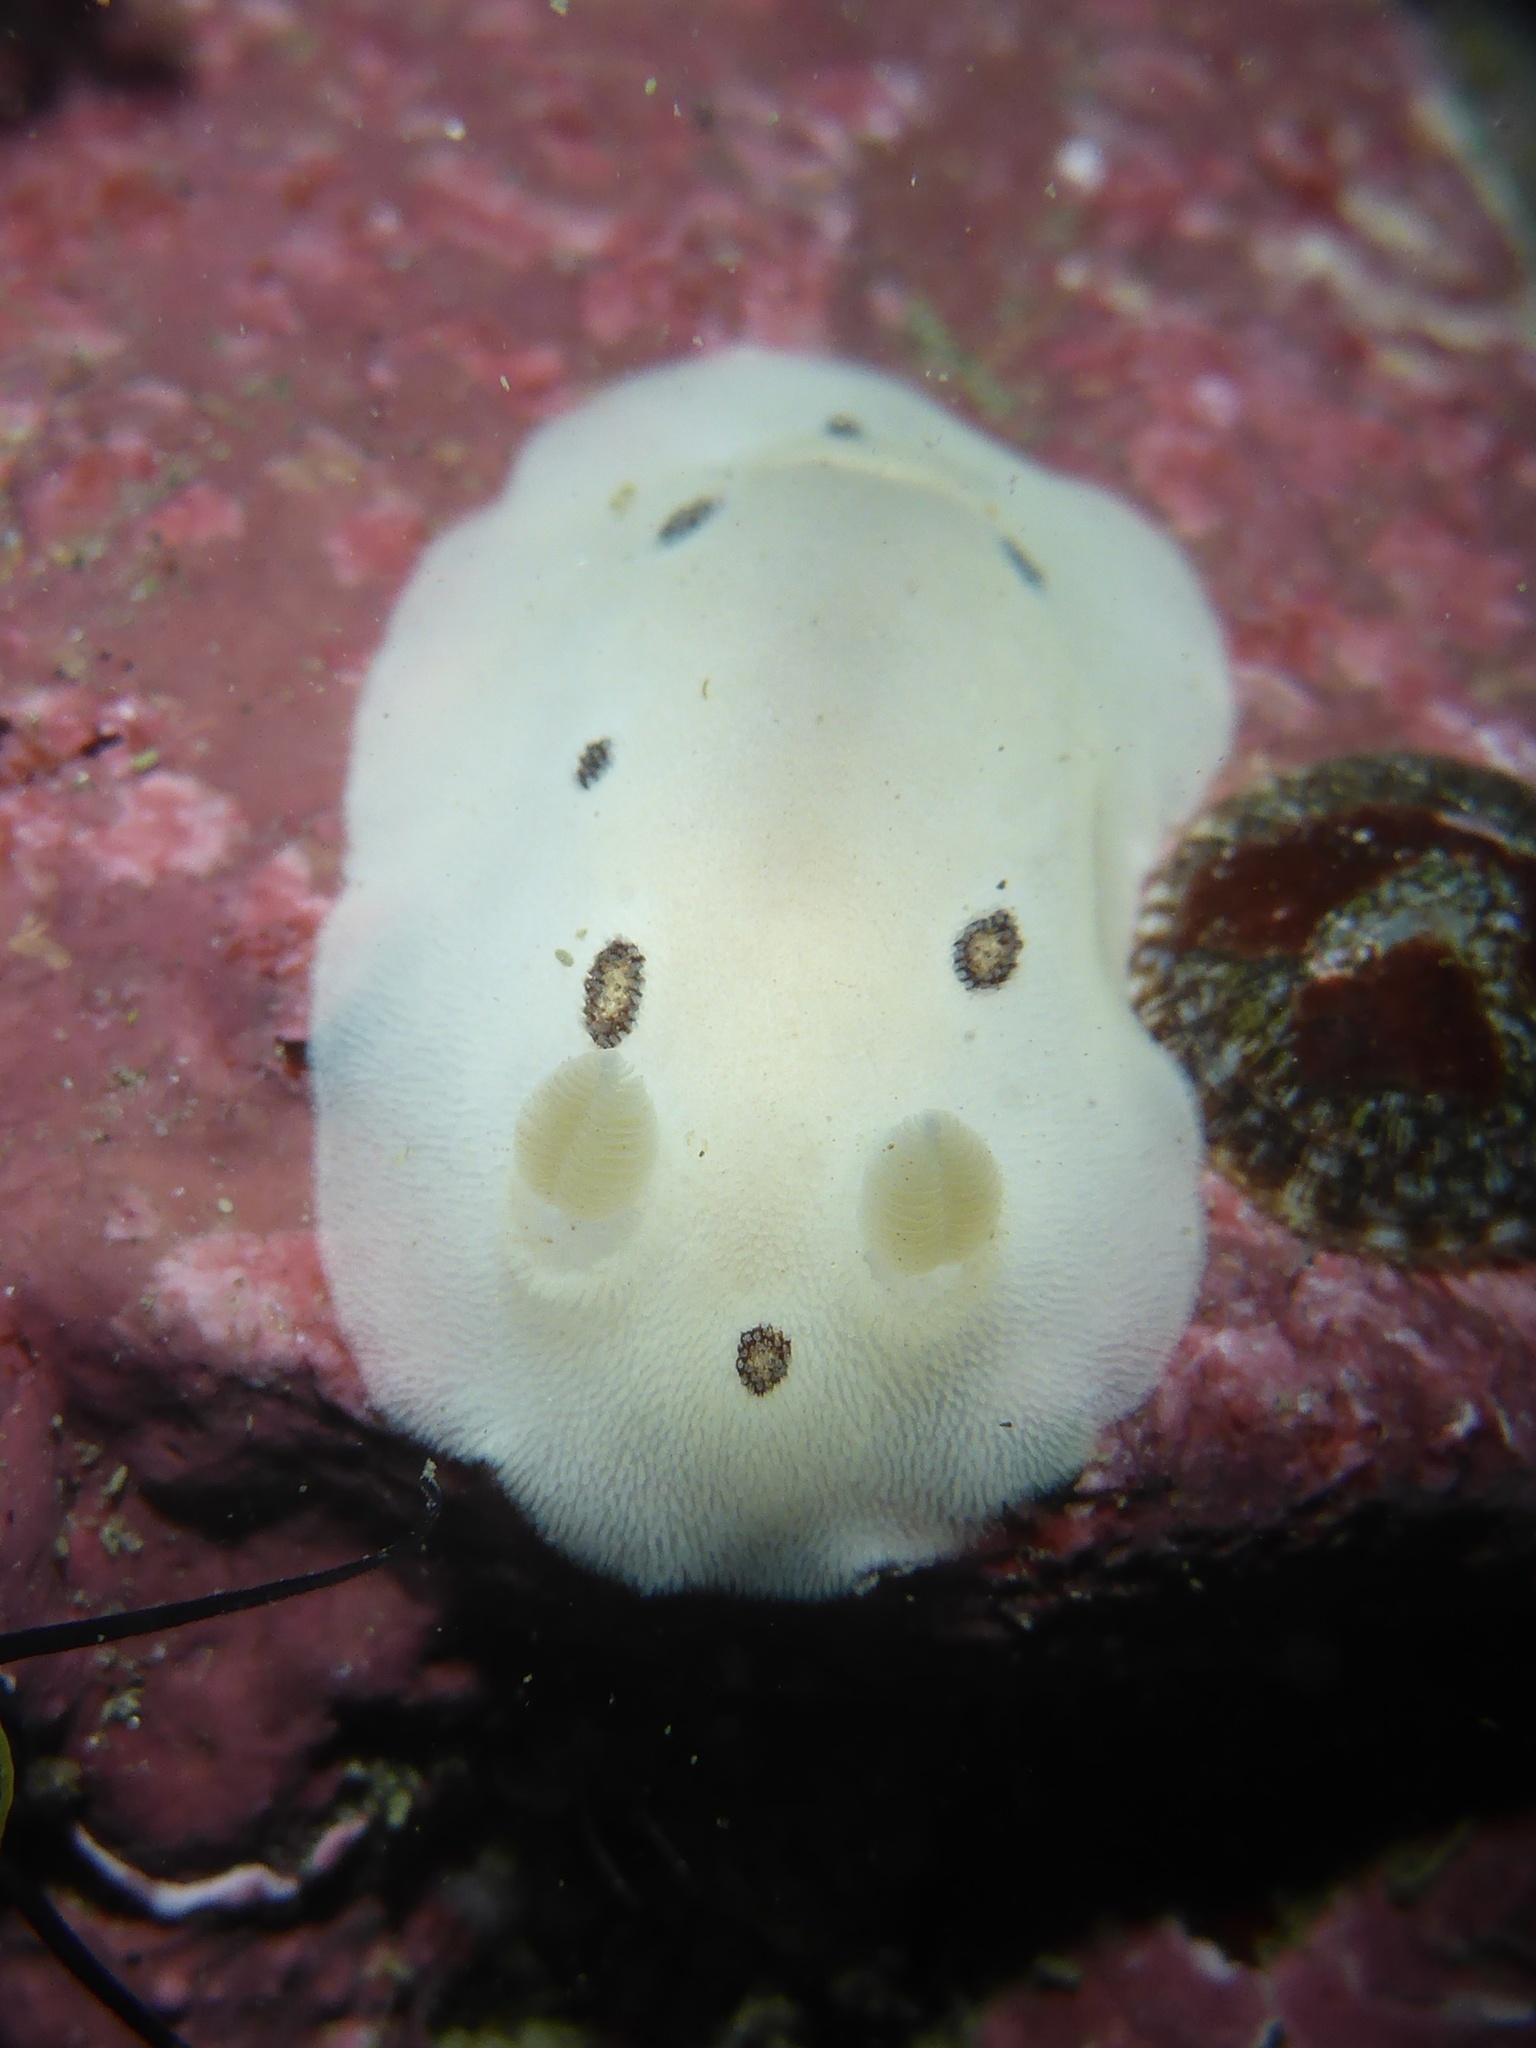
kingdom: Animalia
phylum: Mollusca
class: Gastropoda
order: Nudibranchia
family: Discodorididae
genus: Diaulula
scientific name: Diaulula sandiegensis
